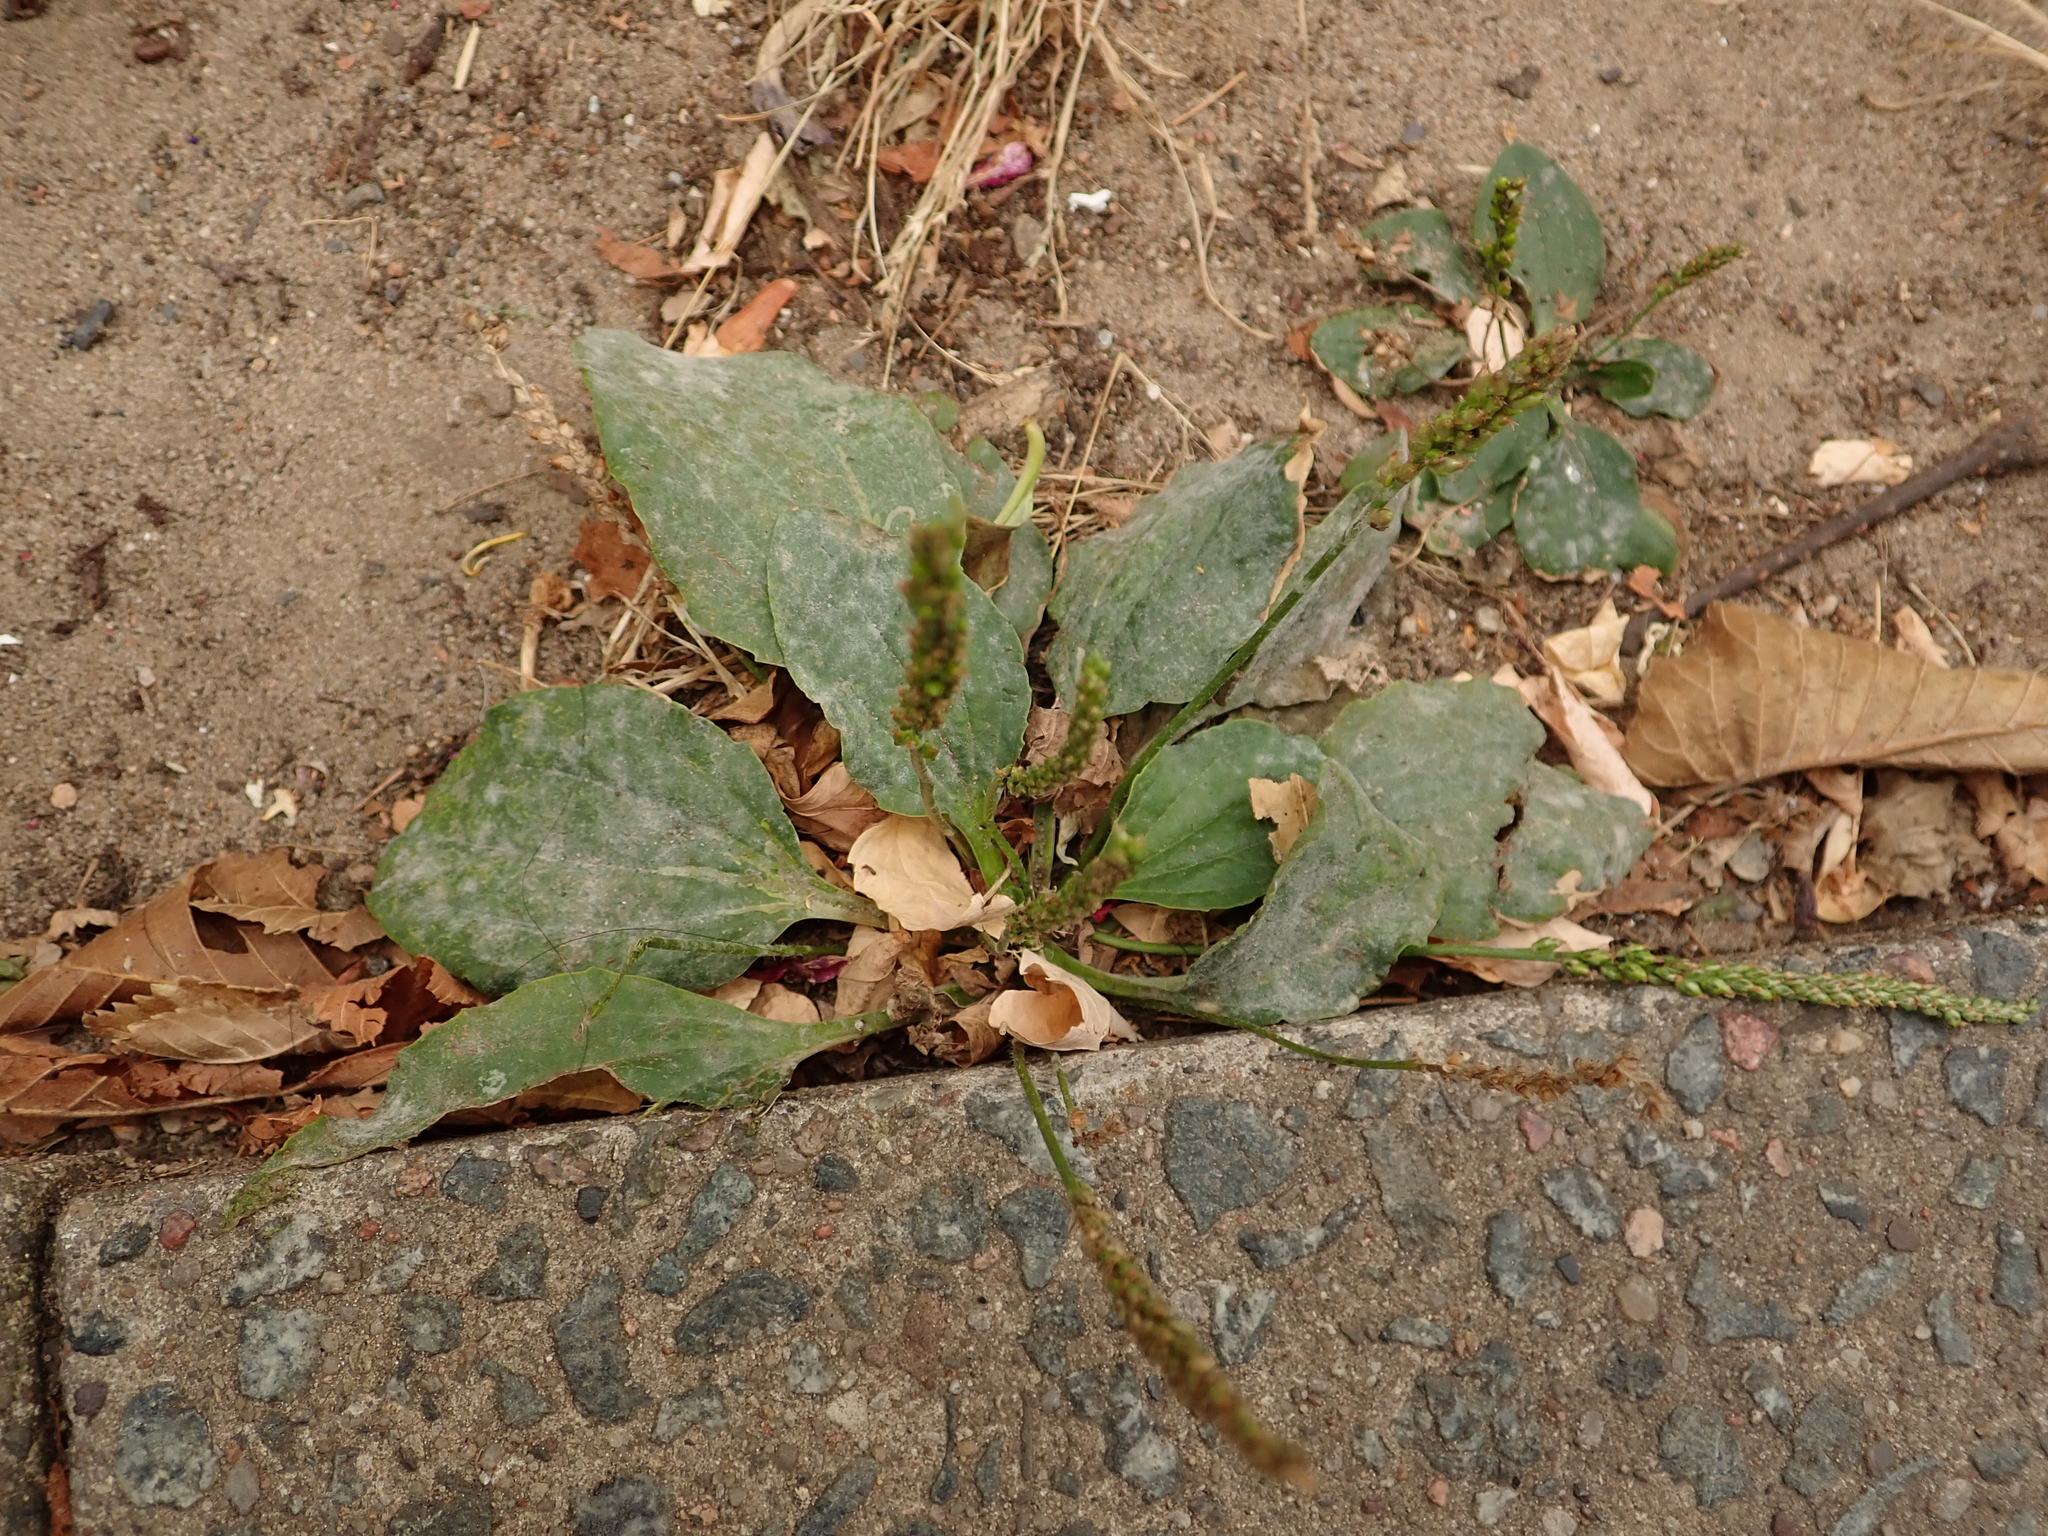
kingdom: Plantae
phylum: Tracheophyta
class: Magnoliopsida
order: Lamiales
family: Plantaginaceae
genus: Plantago
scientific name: Plantago major
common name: Common plantain
